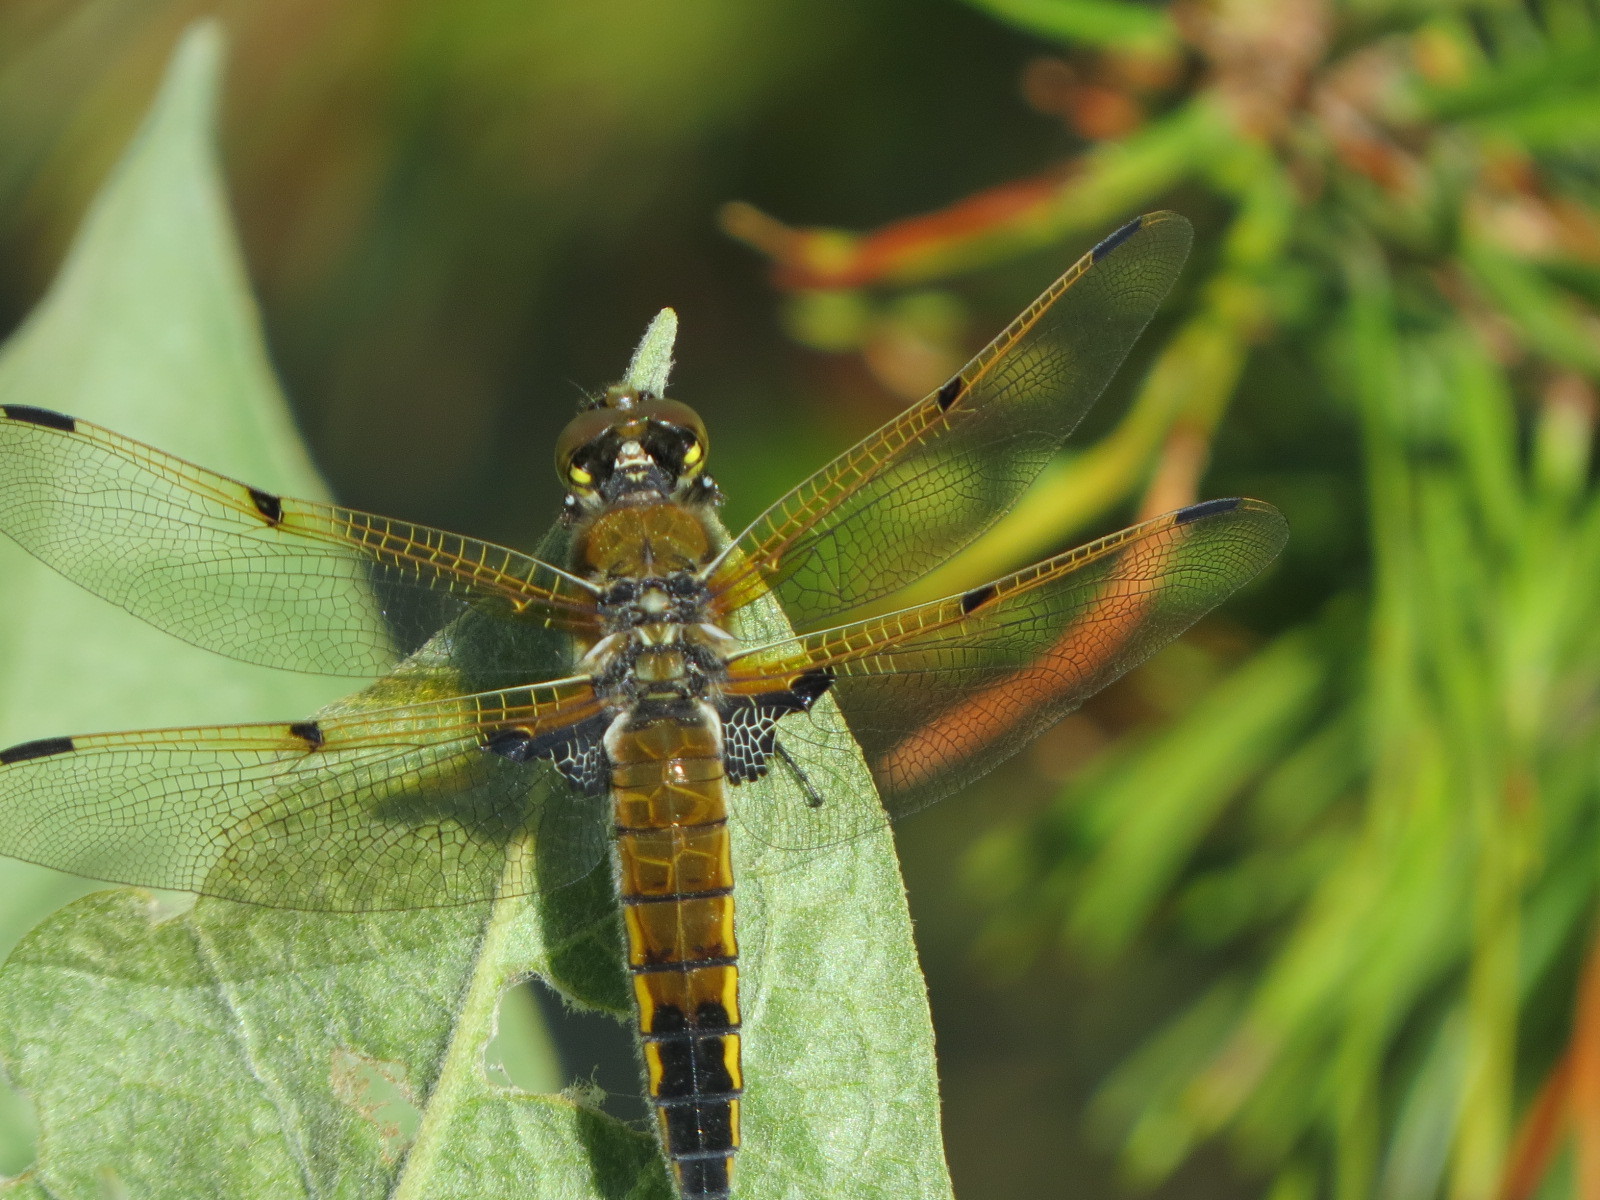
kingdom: Animalia
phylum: Arthropoda
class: Insecta
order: Odonata
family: Libellulidae
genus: Libellula
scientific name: Libellula quadrimaculata
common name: Four-spotted chaser
